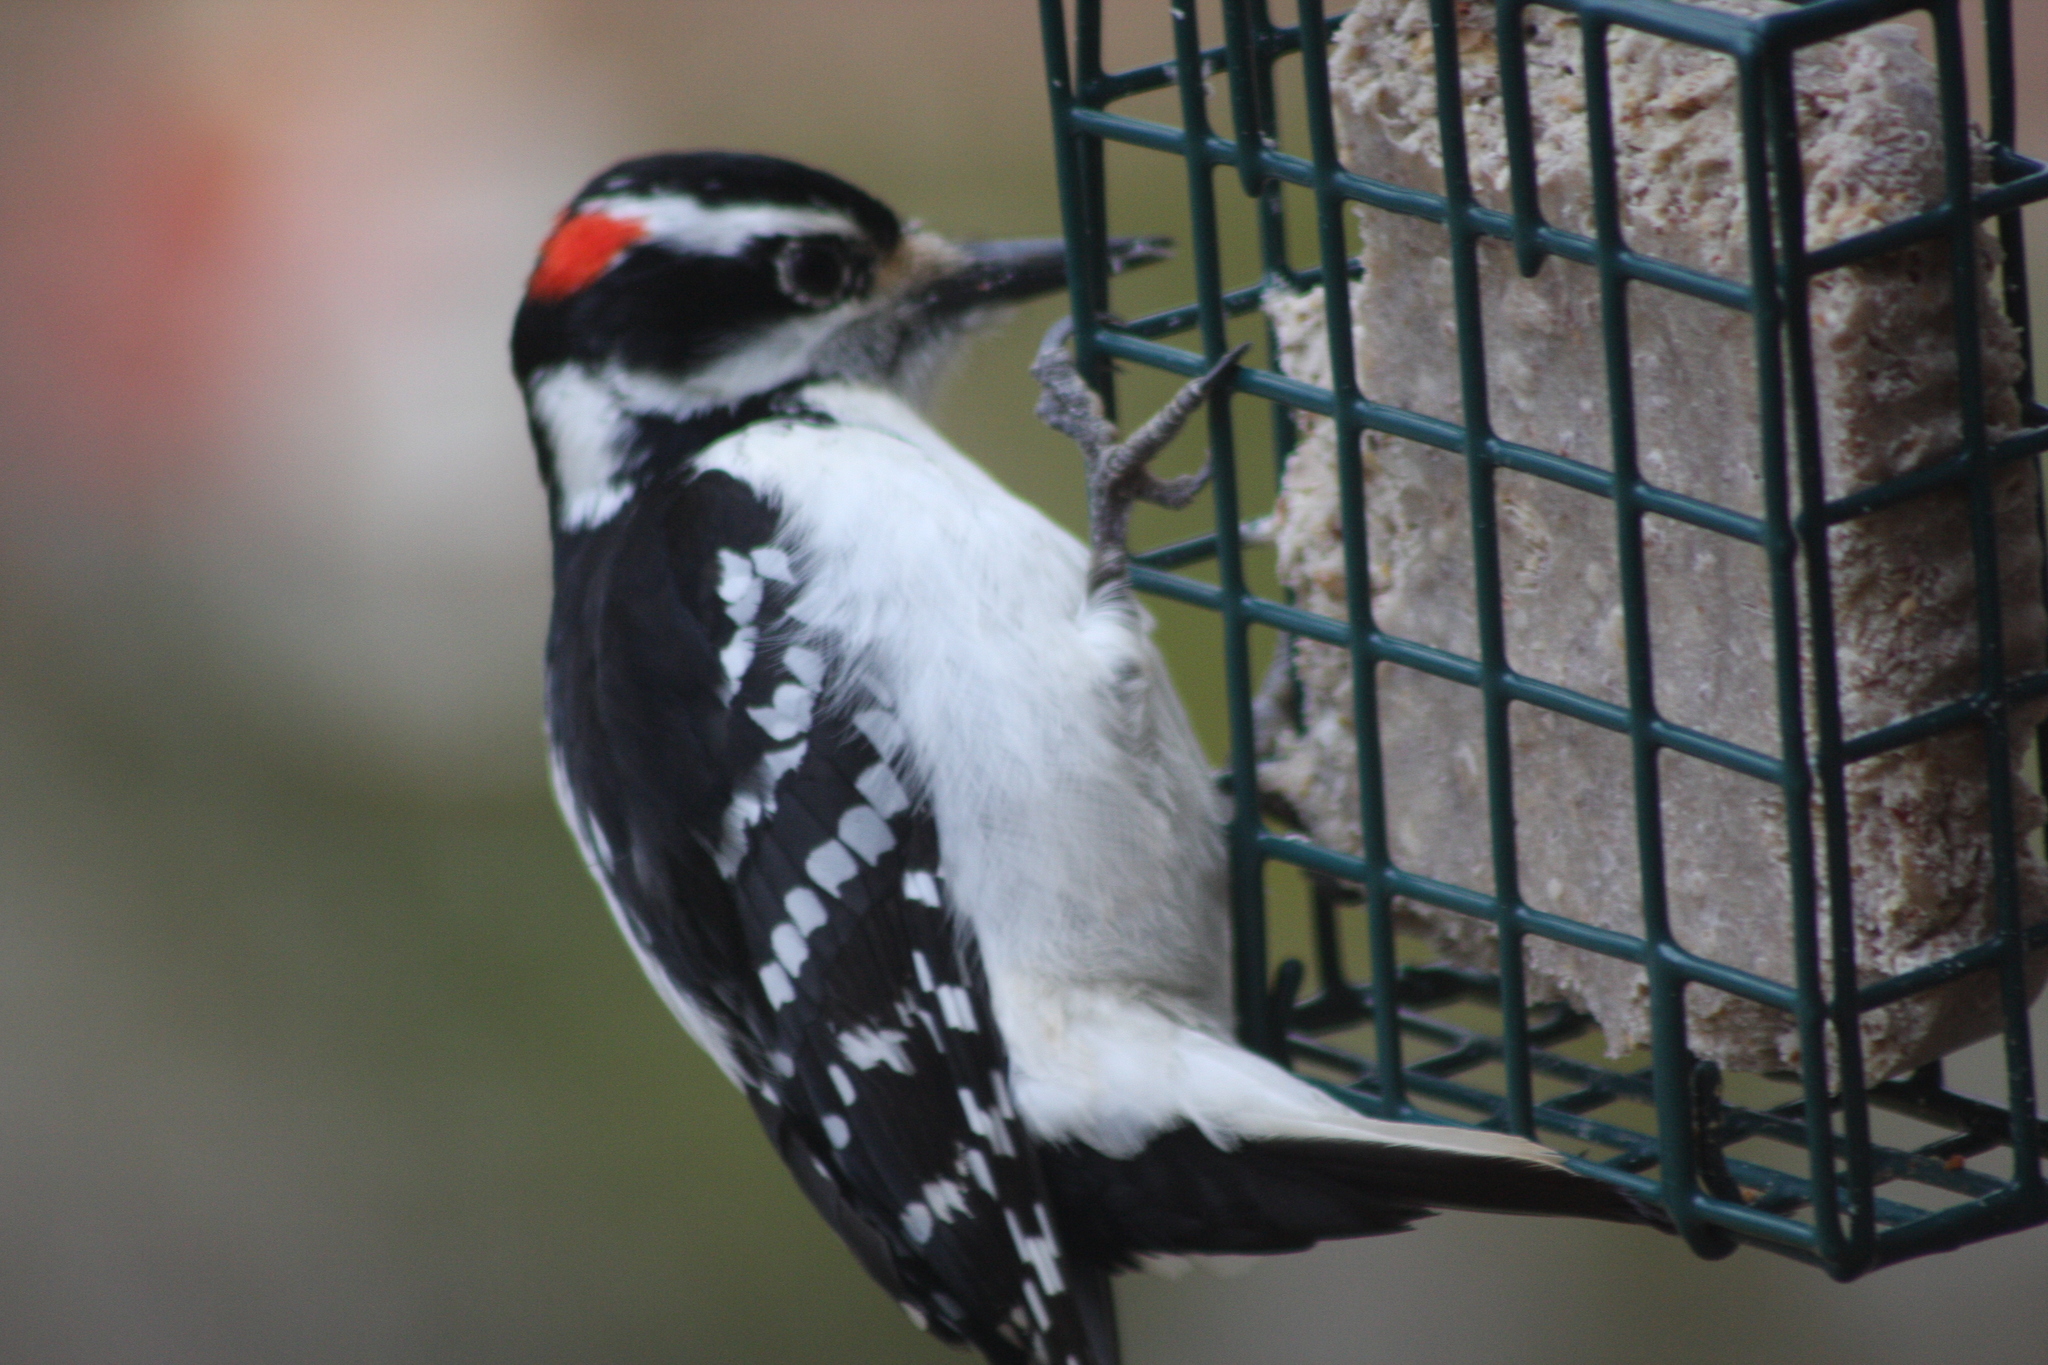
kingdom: Animalia
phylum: Chordata
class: Aves
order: Piciformes
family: Picidae
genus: Leuconotopicus
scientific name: Leuconotopicus villosus
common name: Hairy woodpecker
